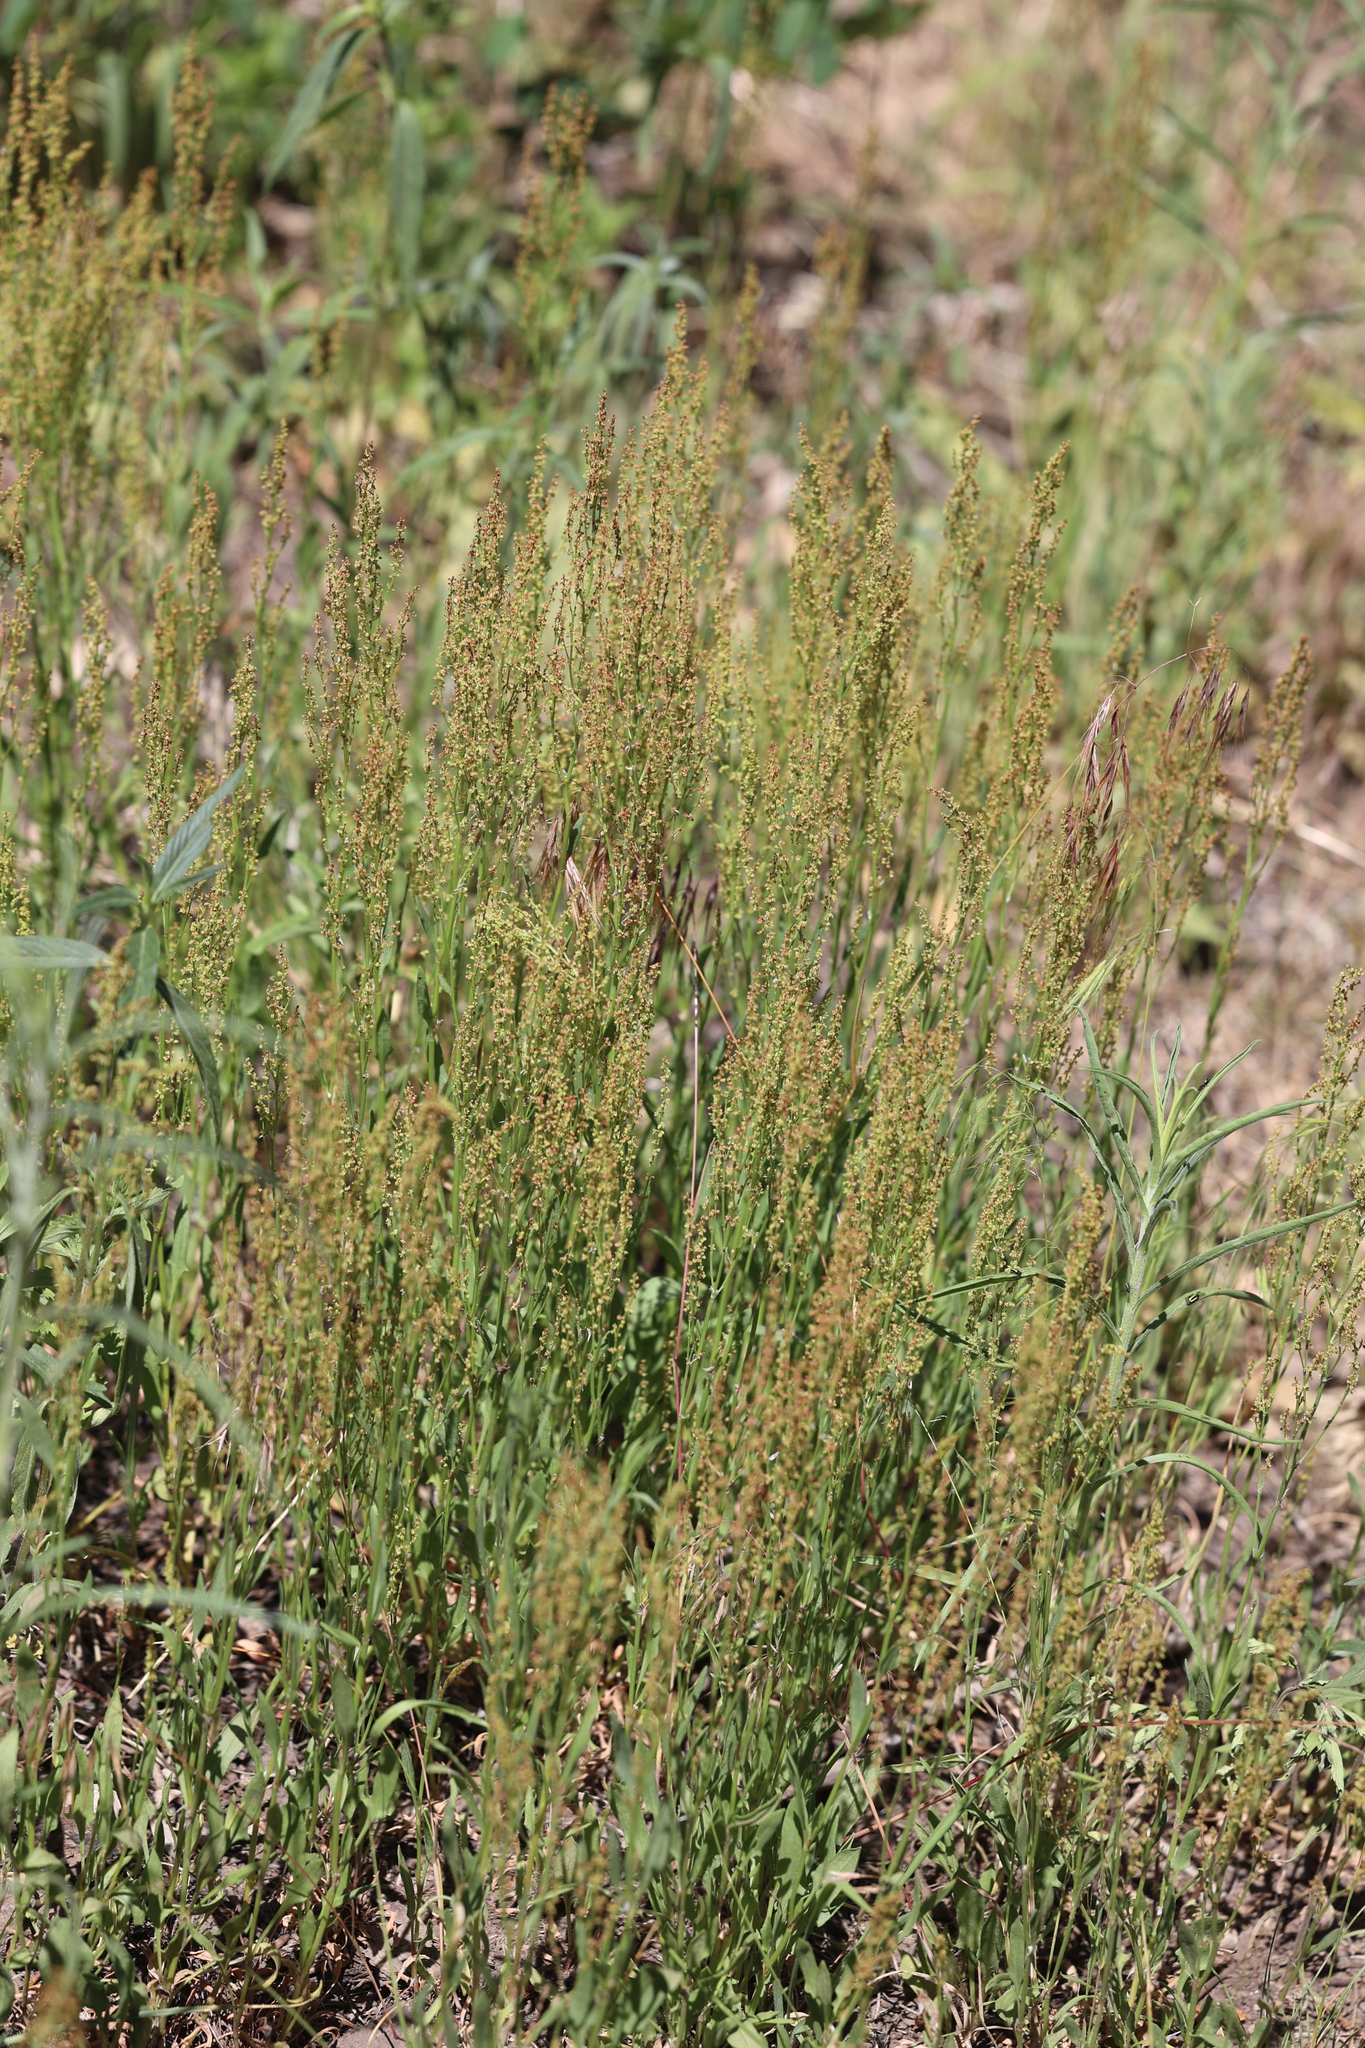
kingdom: Plantae
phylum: Tracheophyta
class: Magnoliopsida
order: Caryophyllales
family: Polygonaceae
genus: Rumex
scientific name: Rumex acetosella
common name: Common sheep sorrel
